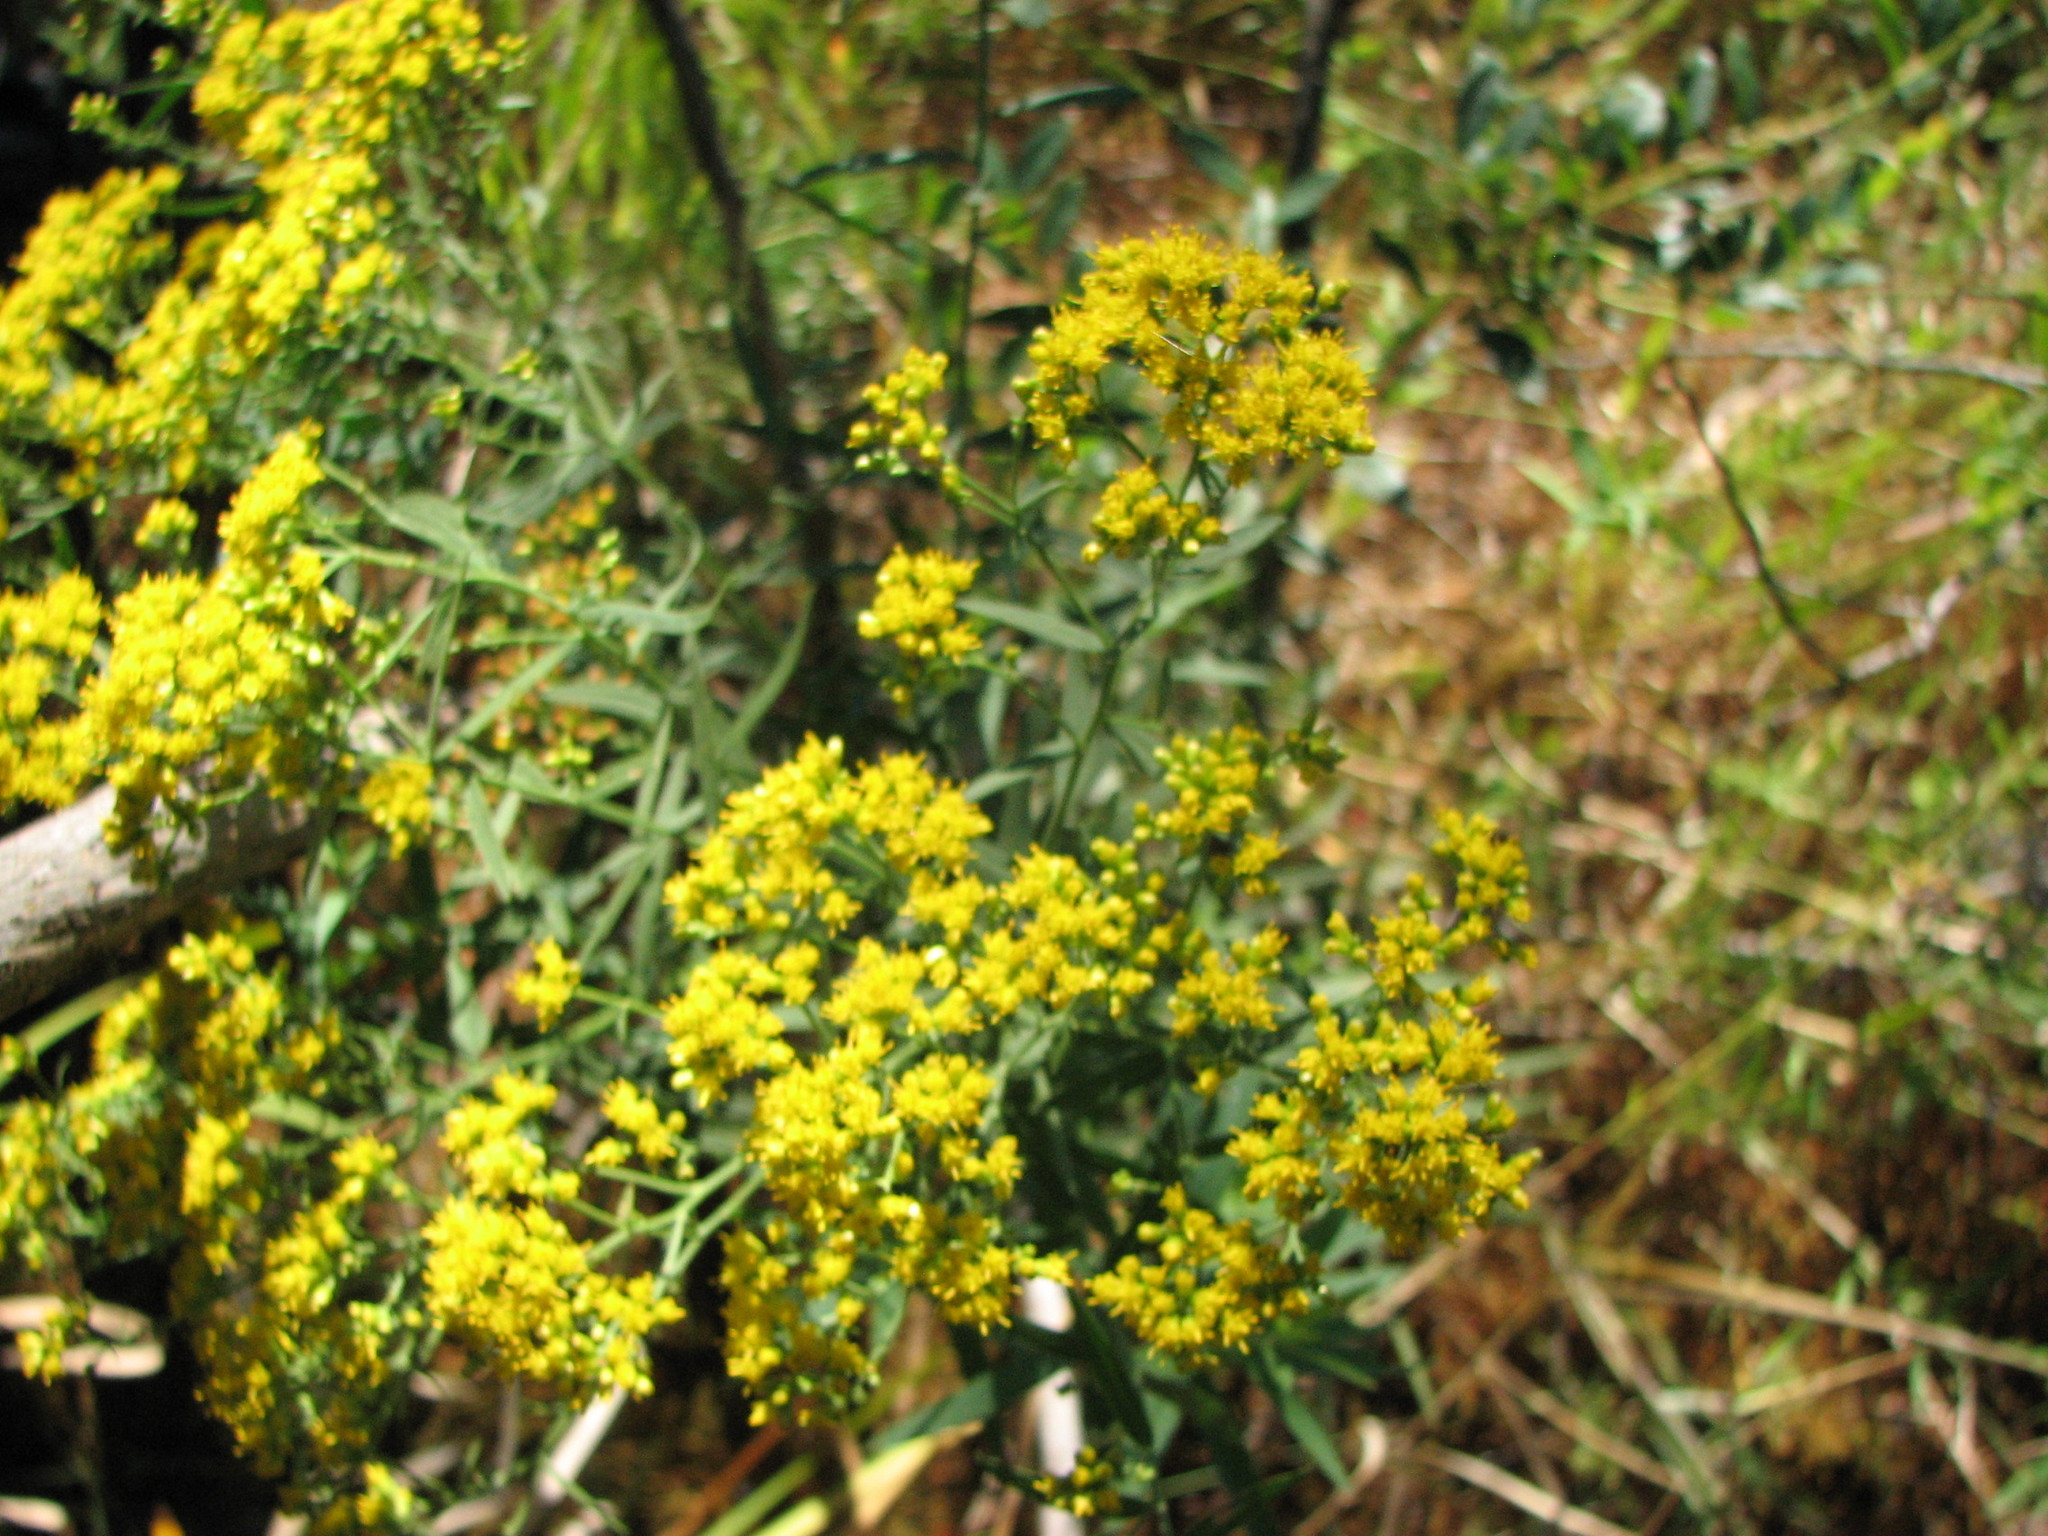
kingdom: Plantae
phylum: Tracheophyta
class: Magnoliopsida
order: Asterales
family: Asteraceae
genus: Euthamia
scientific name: Euthamia graminifolia
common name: Common goldentop
